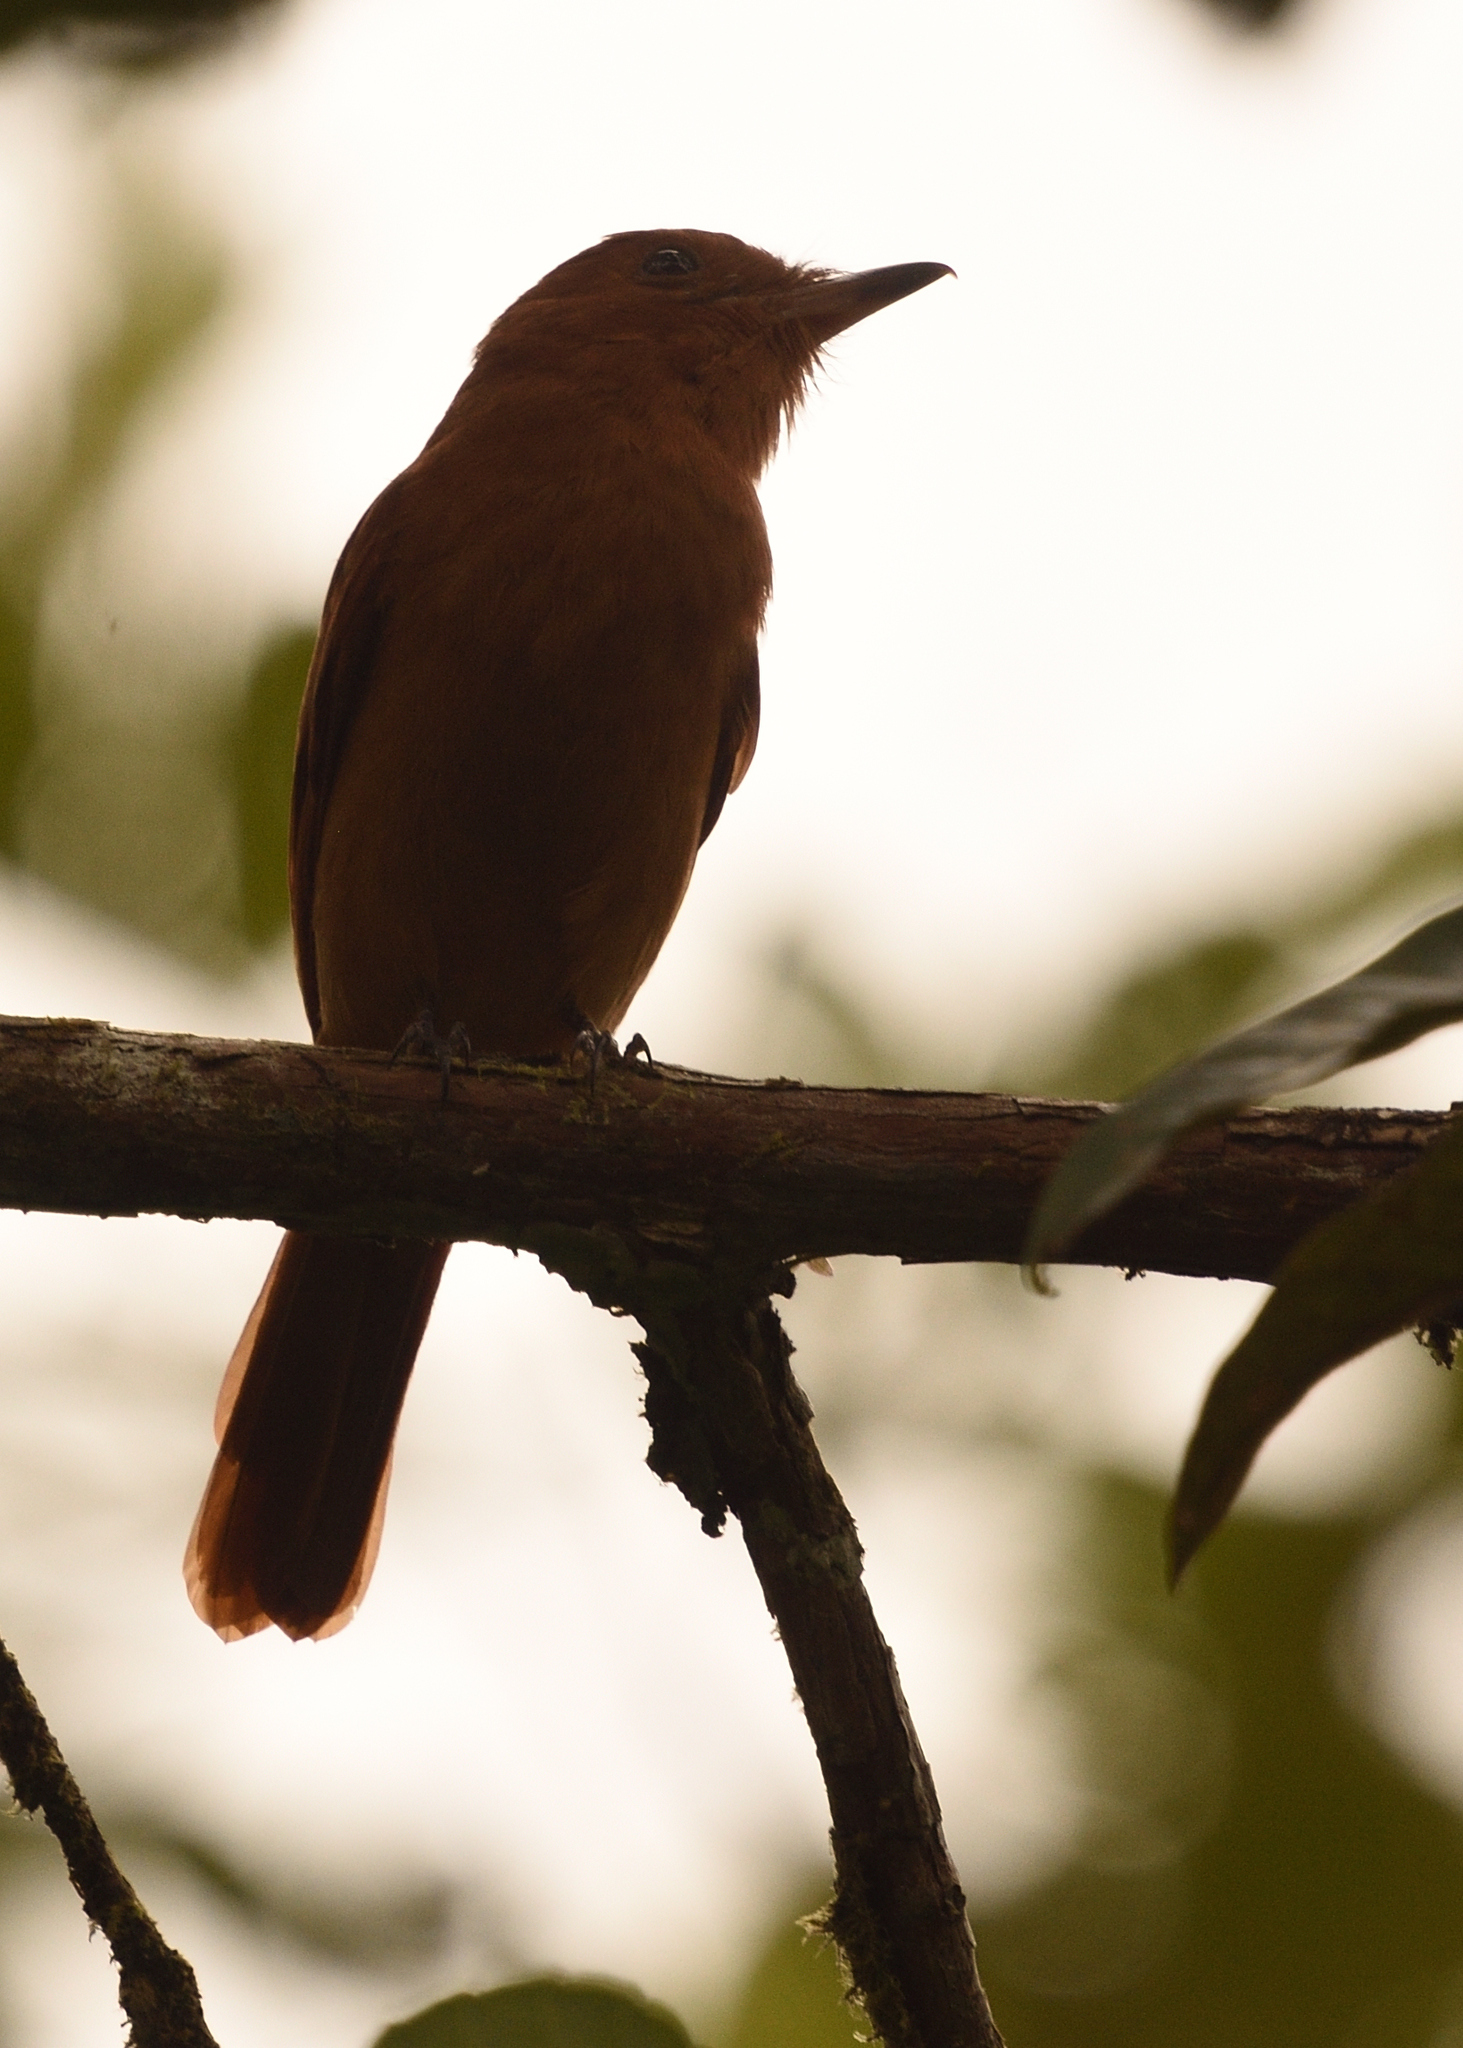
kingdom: Animalia
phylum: Chordata
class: Aves
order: Passeriformes
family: Tyrannidae
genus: Rhytipterna
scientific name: Rhytipterna holerythra
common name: Rufous mourner
